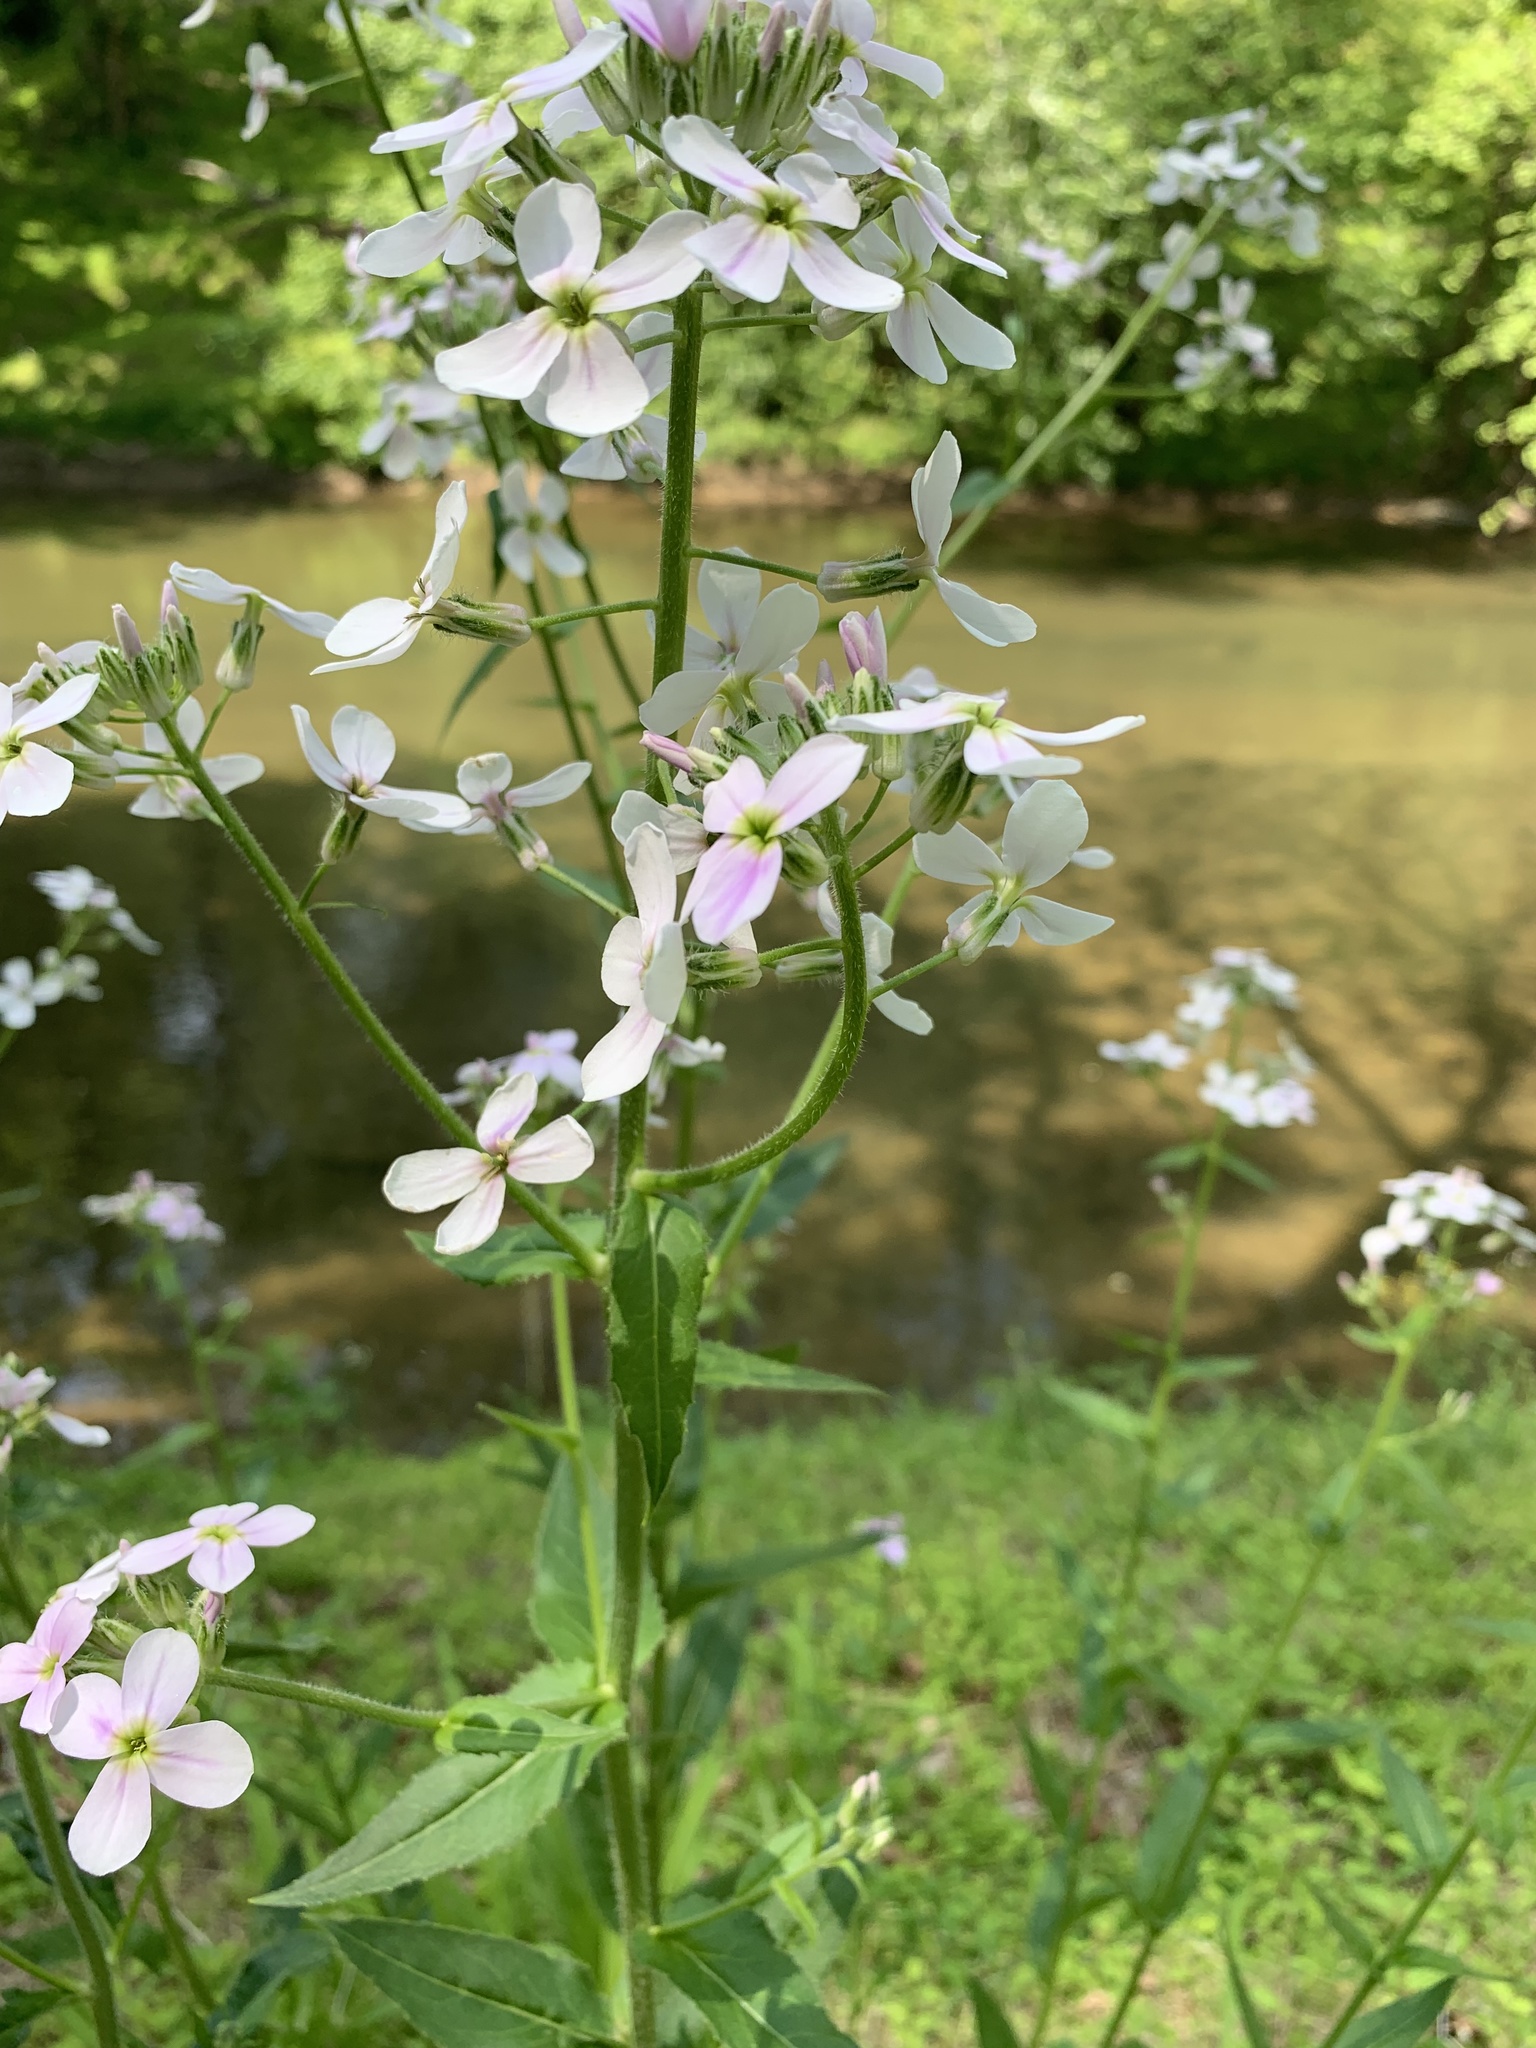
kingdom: Plantae
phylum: Tracheophyta
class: Magnoliopsida
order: Brassicales
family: Brassicaceae
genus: Hesperis
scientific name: Hesperis matronalis
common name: Dame's-violet
